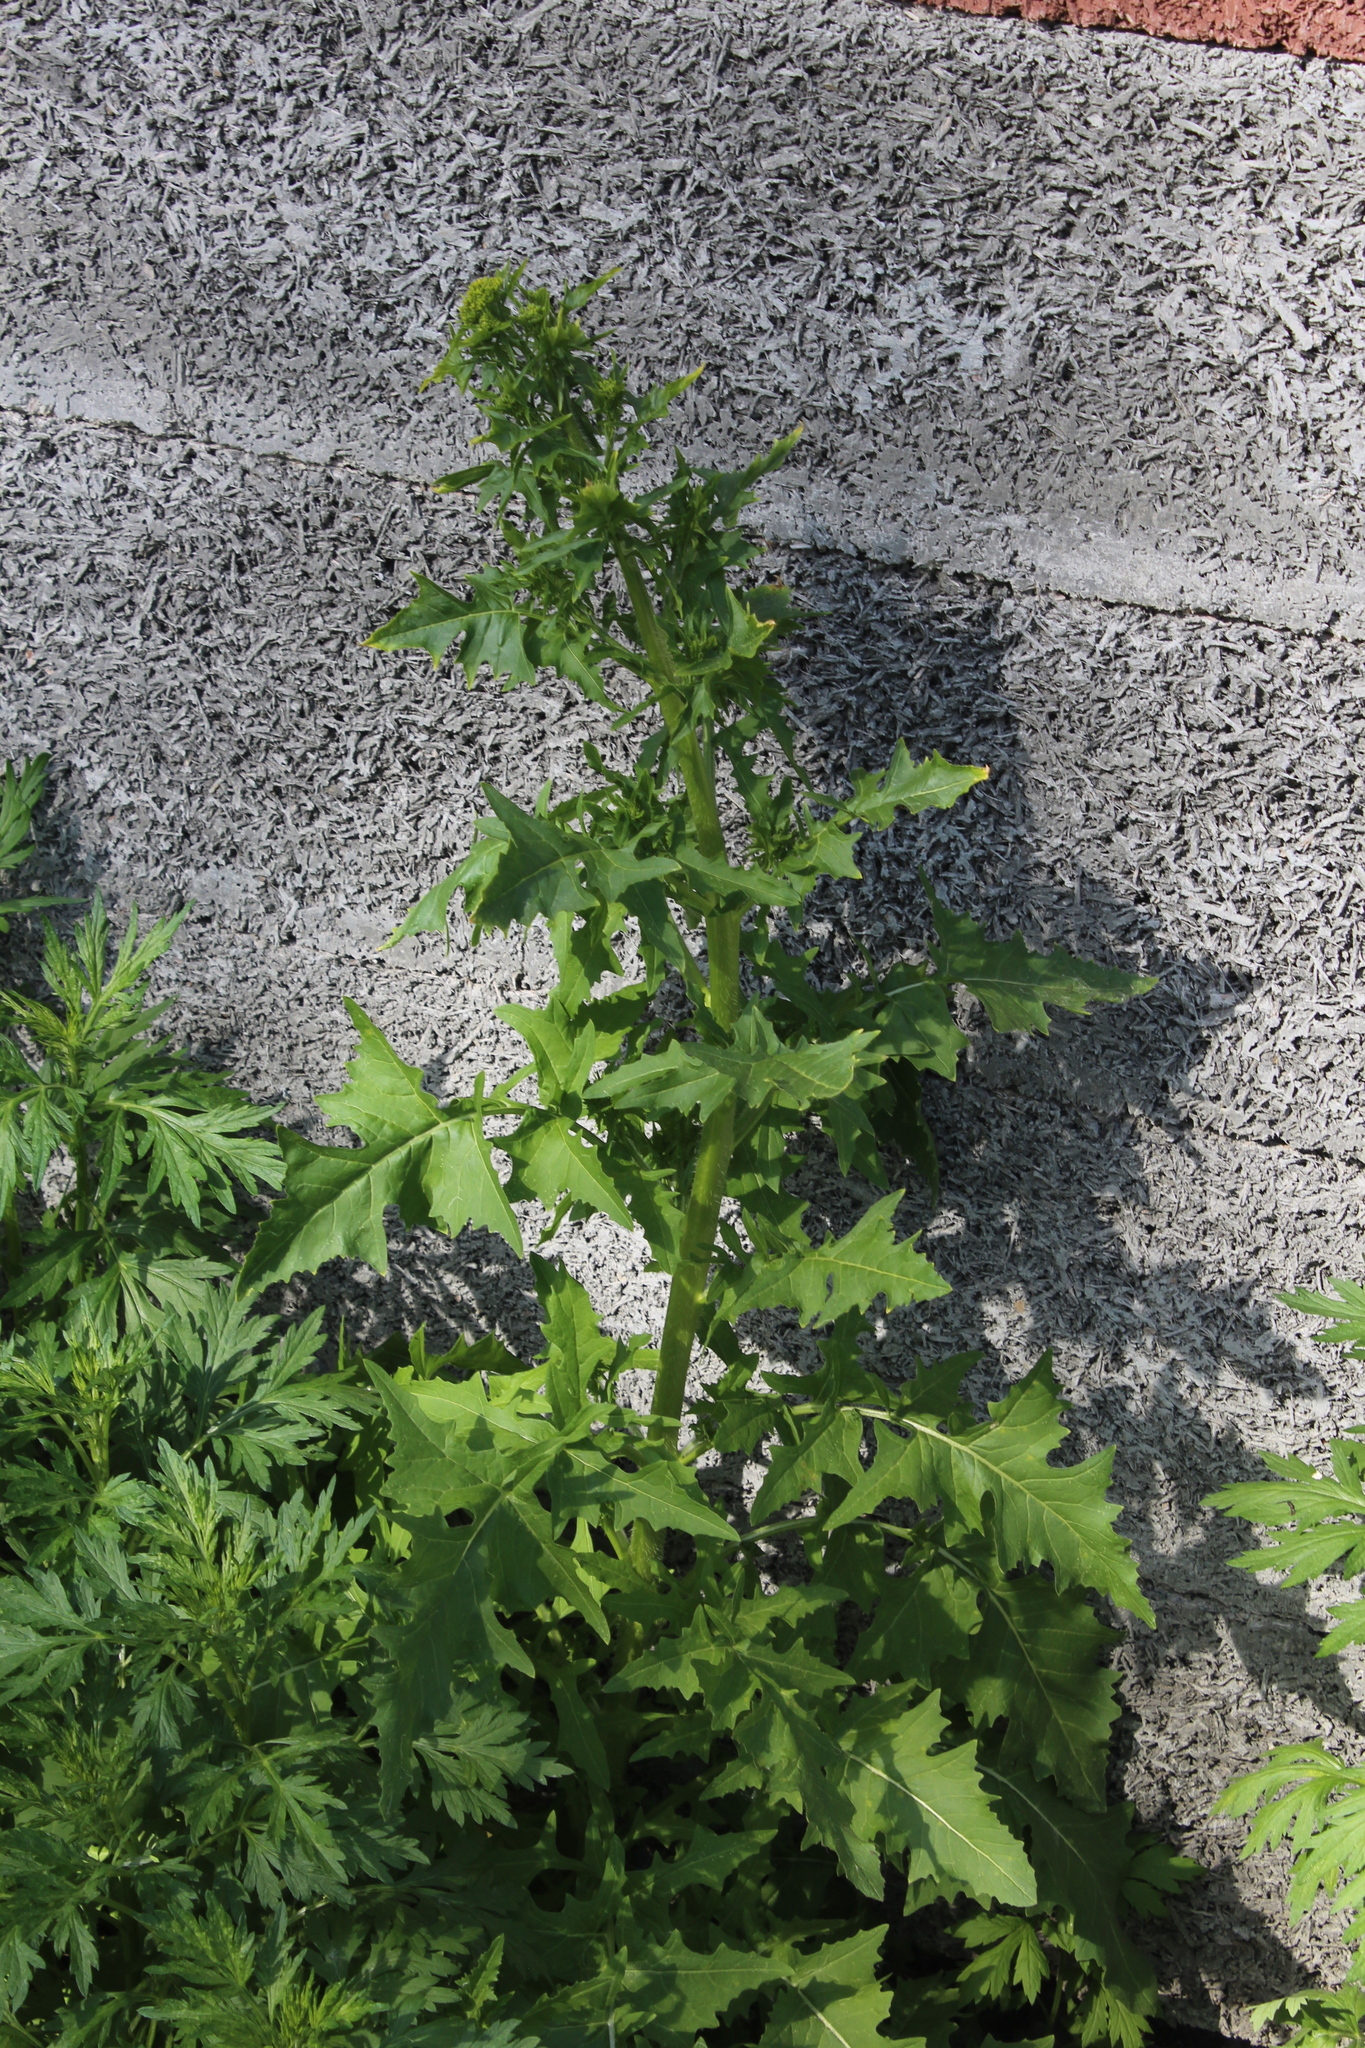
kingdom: Plantae
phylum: Tracheophyta
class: Magnoliopsida
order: Brassicales
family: Brassicaceae
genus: Sisymbrium
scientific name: Sisymbrium loeselii
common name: False london-rocket
